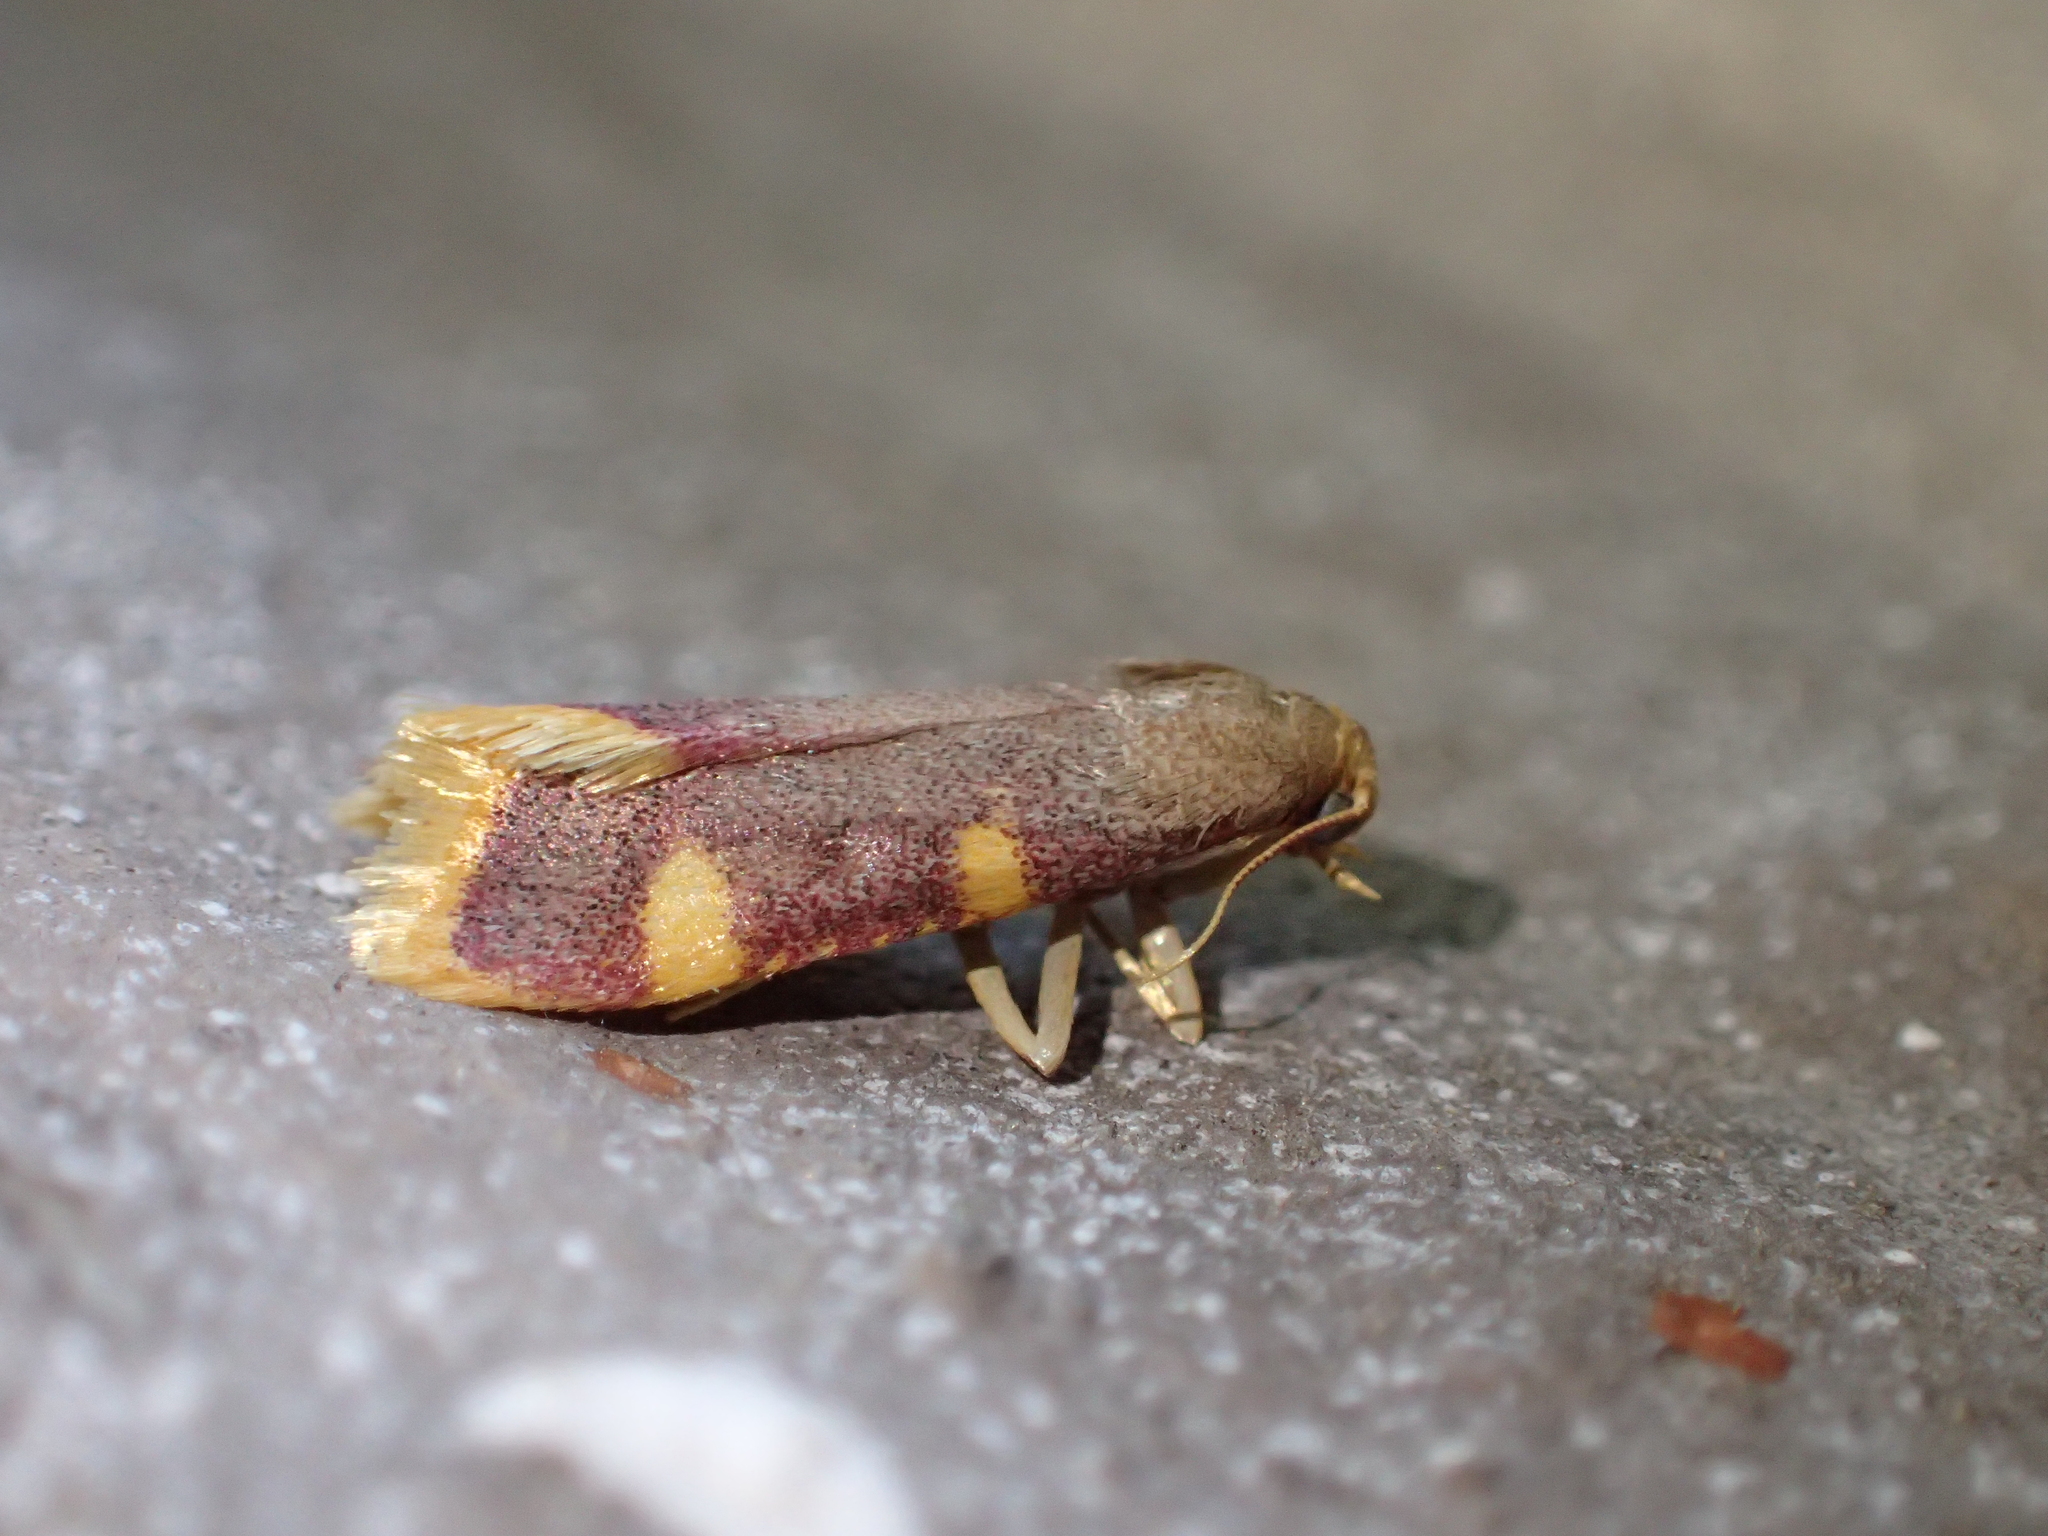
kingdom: Animalia
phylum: Arthropoda
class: Insecta
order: Lepidoptera
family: Pyralidae
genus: Hypsopygia
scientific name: Hypsopygia costalis
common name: Gold triangle
